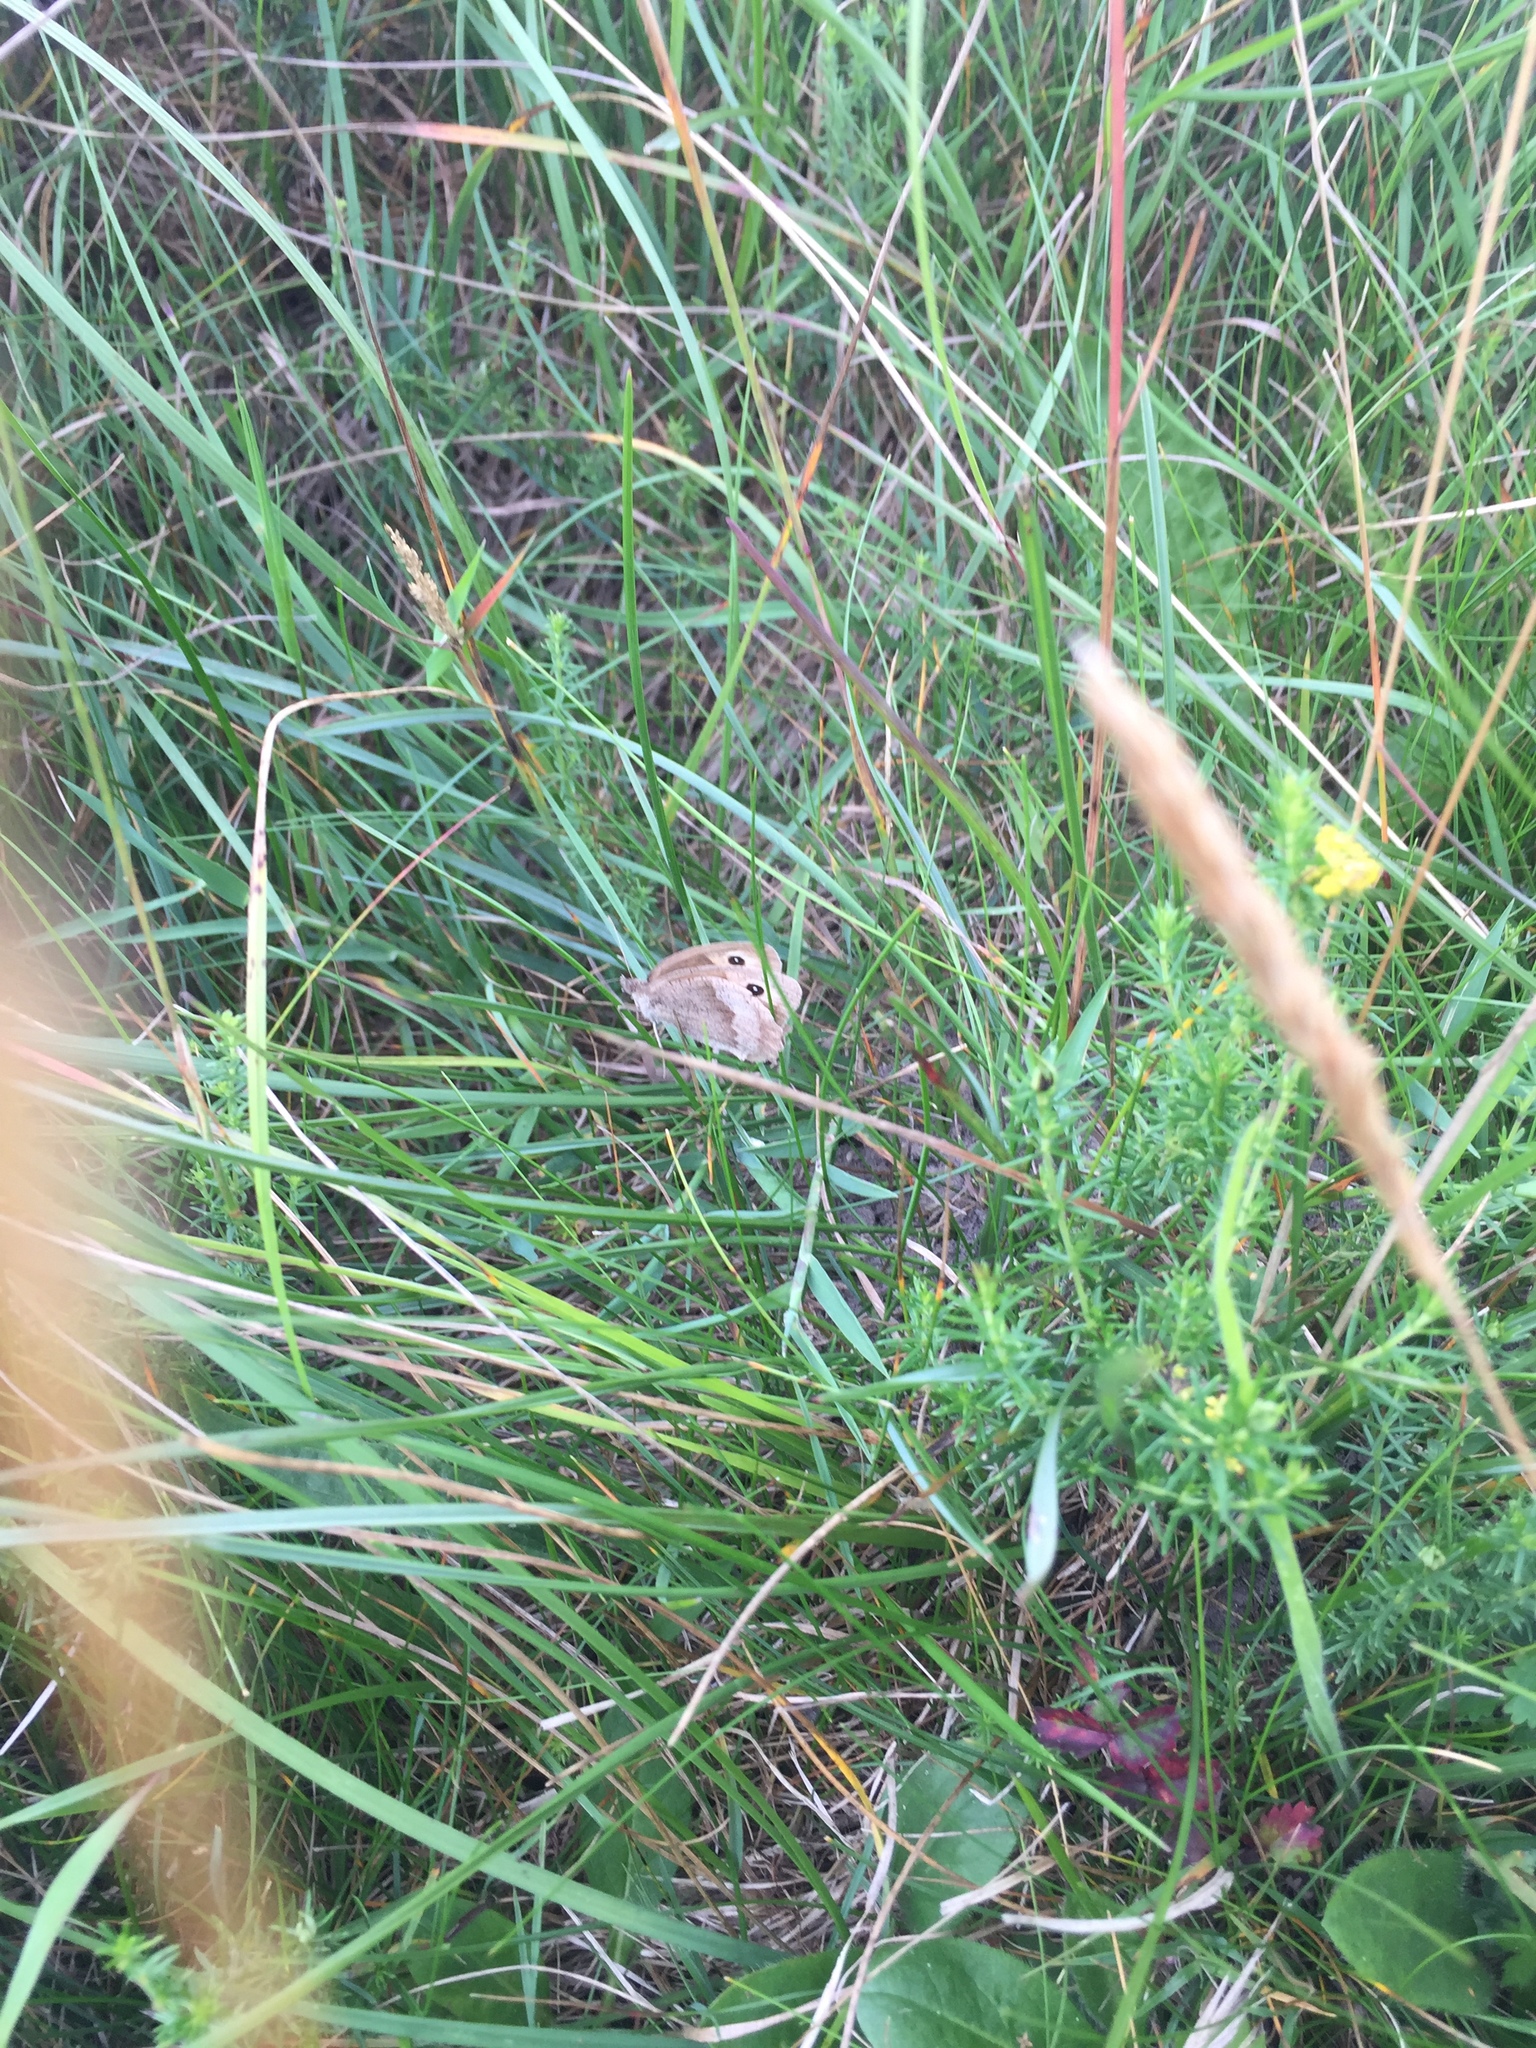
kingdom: Animalia
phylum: Arthropoda
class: Insecta
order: Lepidoptera
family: Nymphalidae
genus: Maniola
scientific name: Maniola jurtina
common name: Meadow brown
